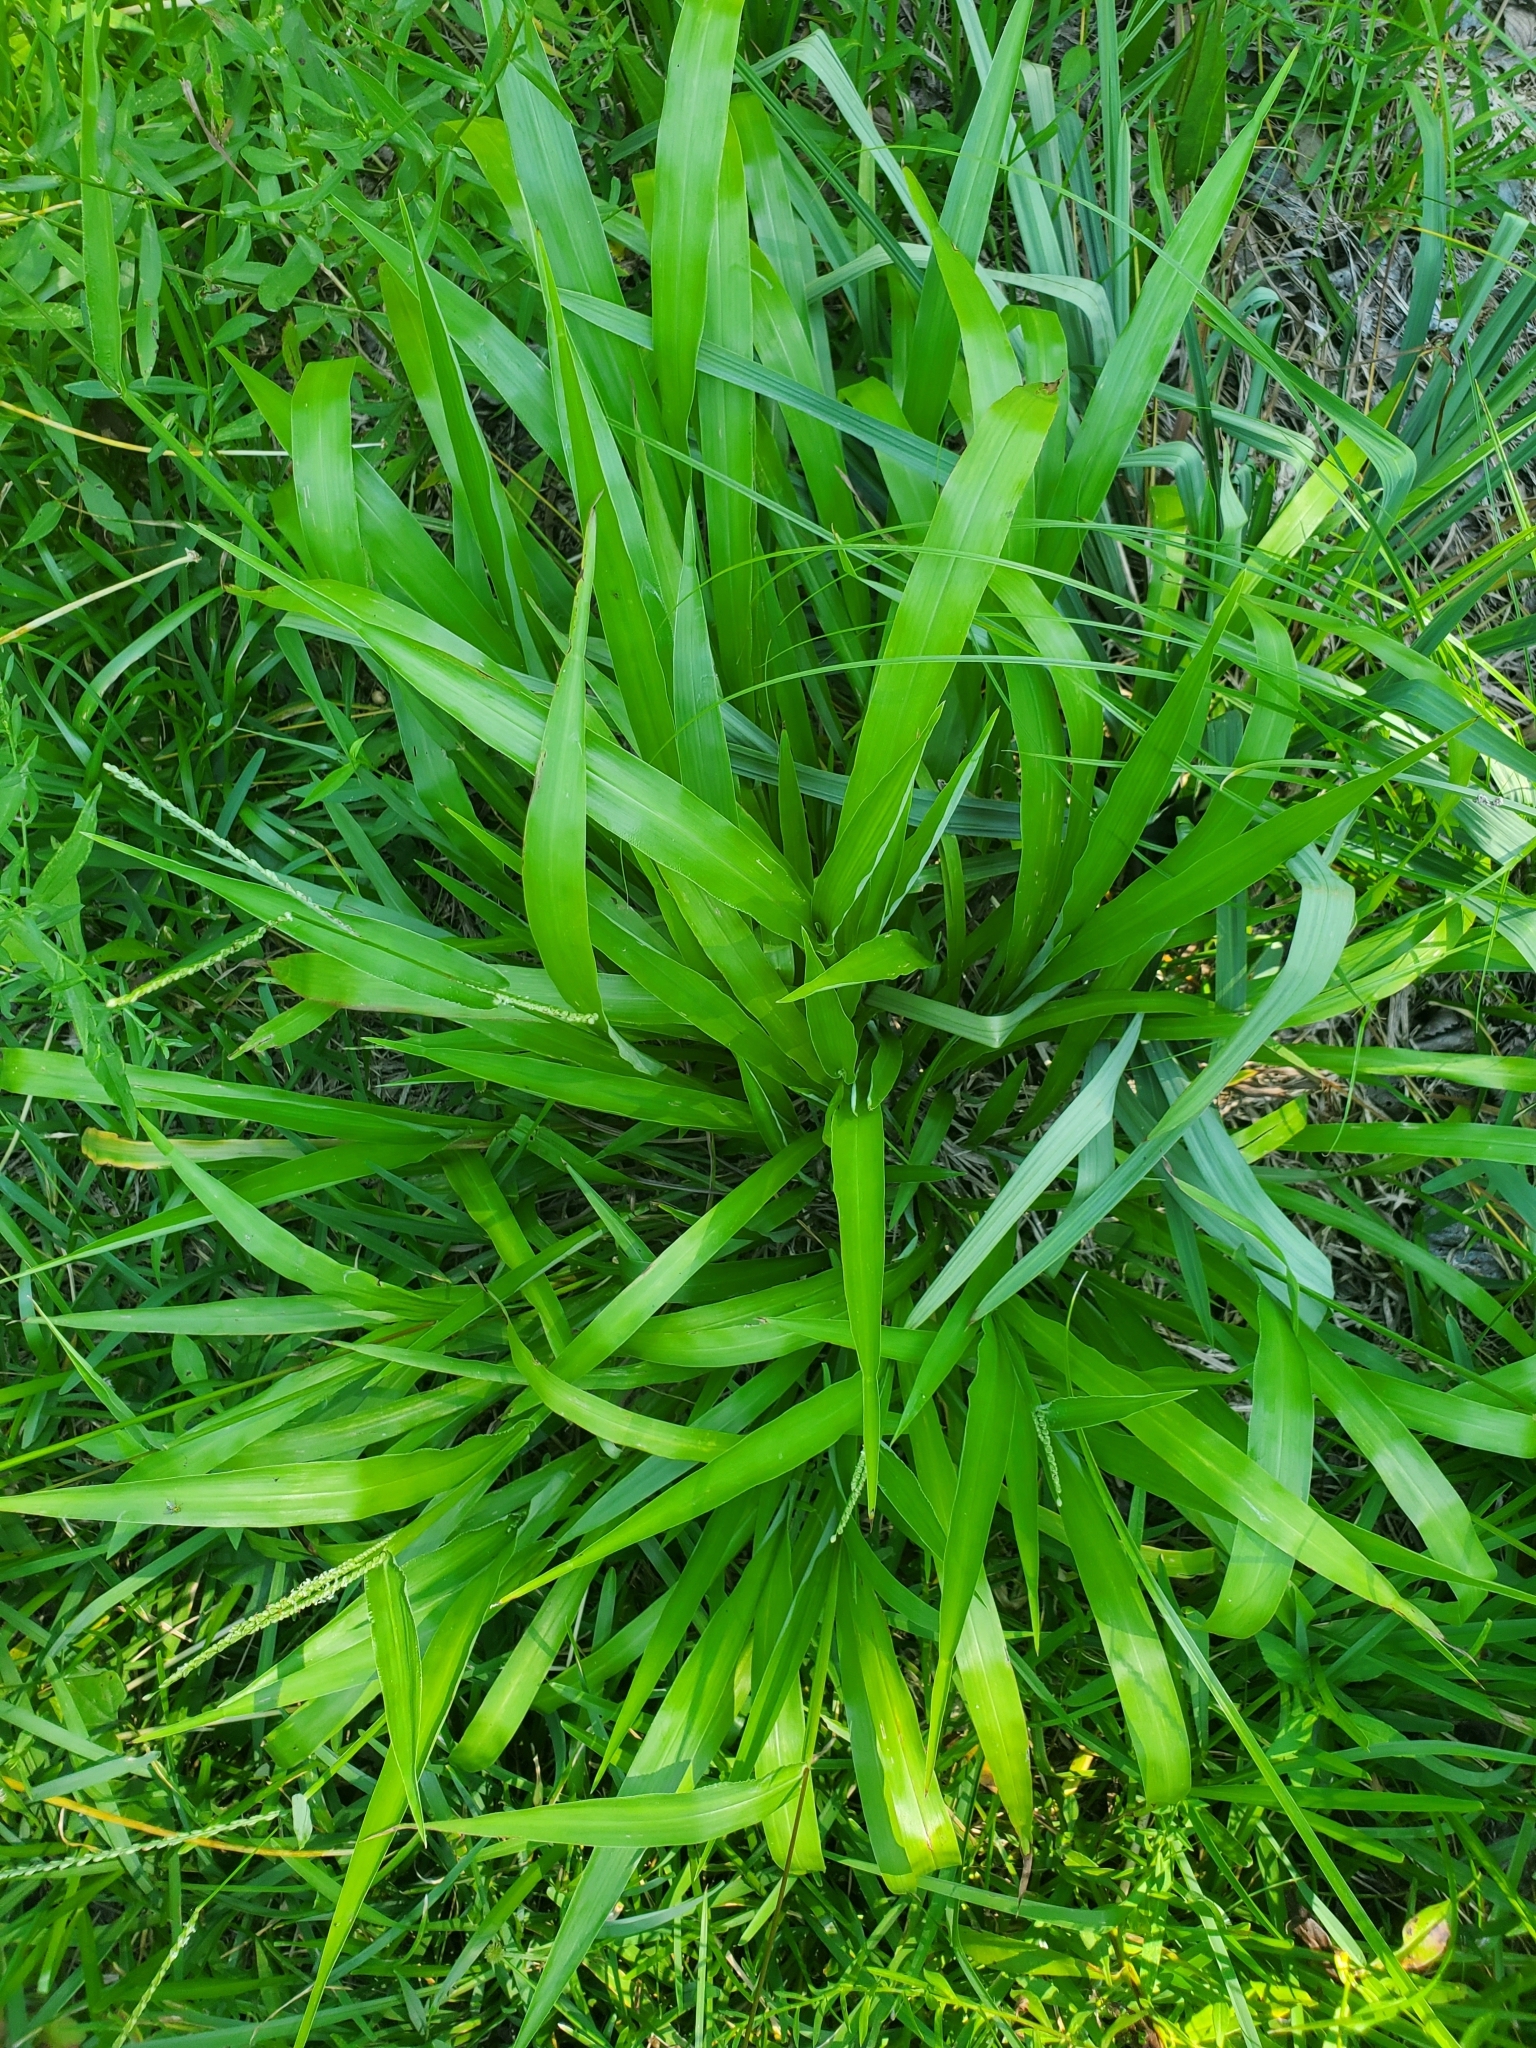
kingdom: Plantae
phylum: Tracheophyta
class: Liliopsida
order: Poales
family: Poaceae
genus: Paspalum
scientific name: Paspalum langei
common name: Rusty-seed paspalum
